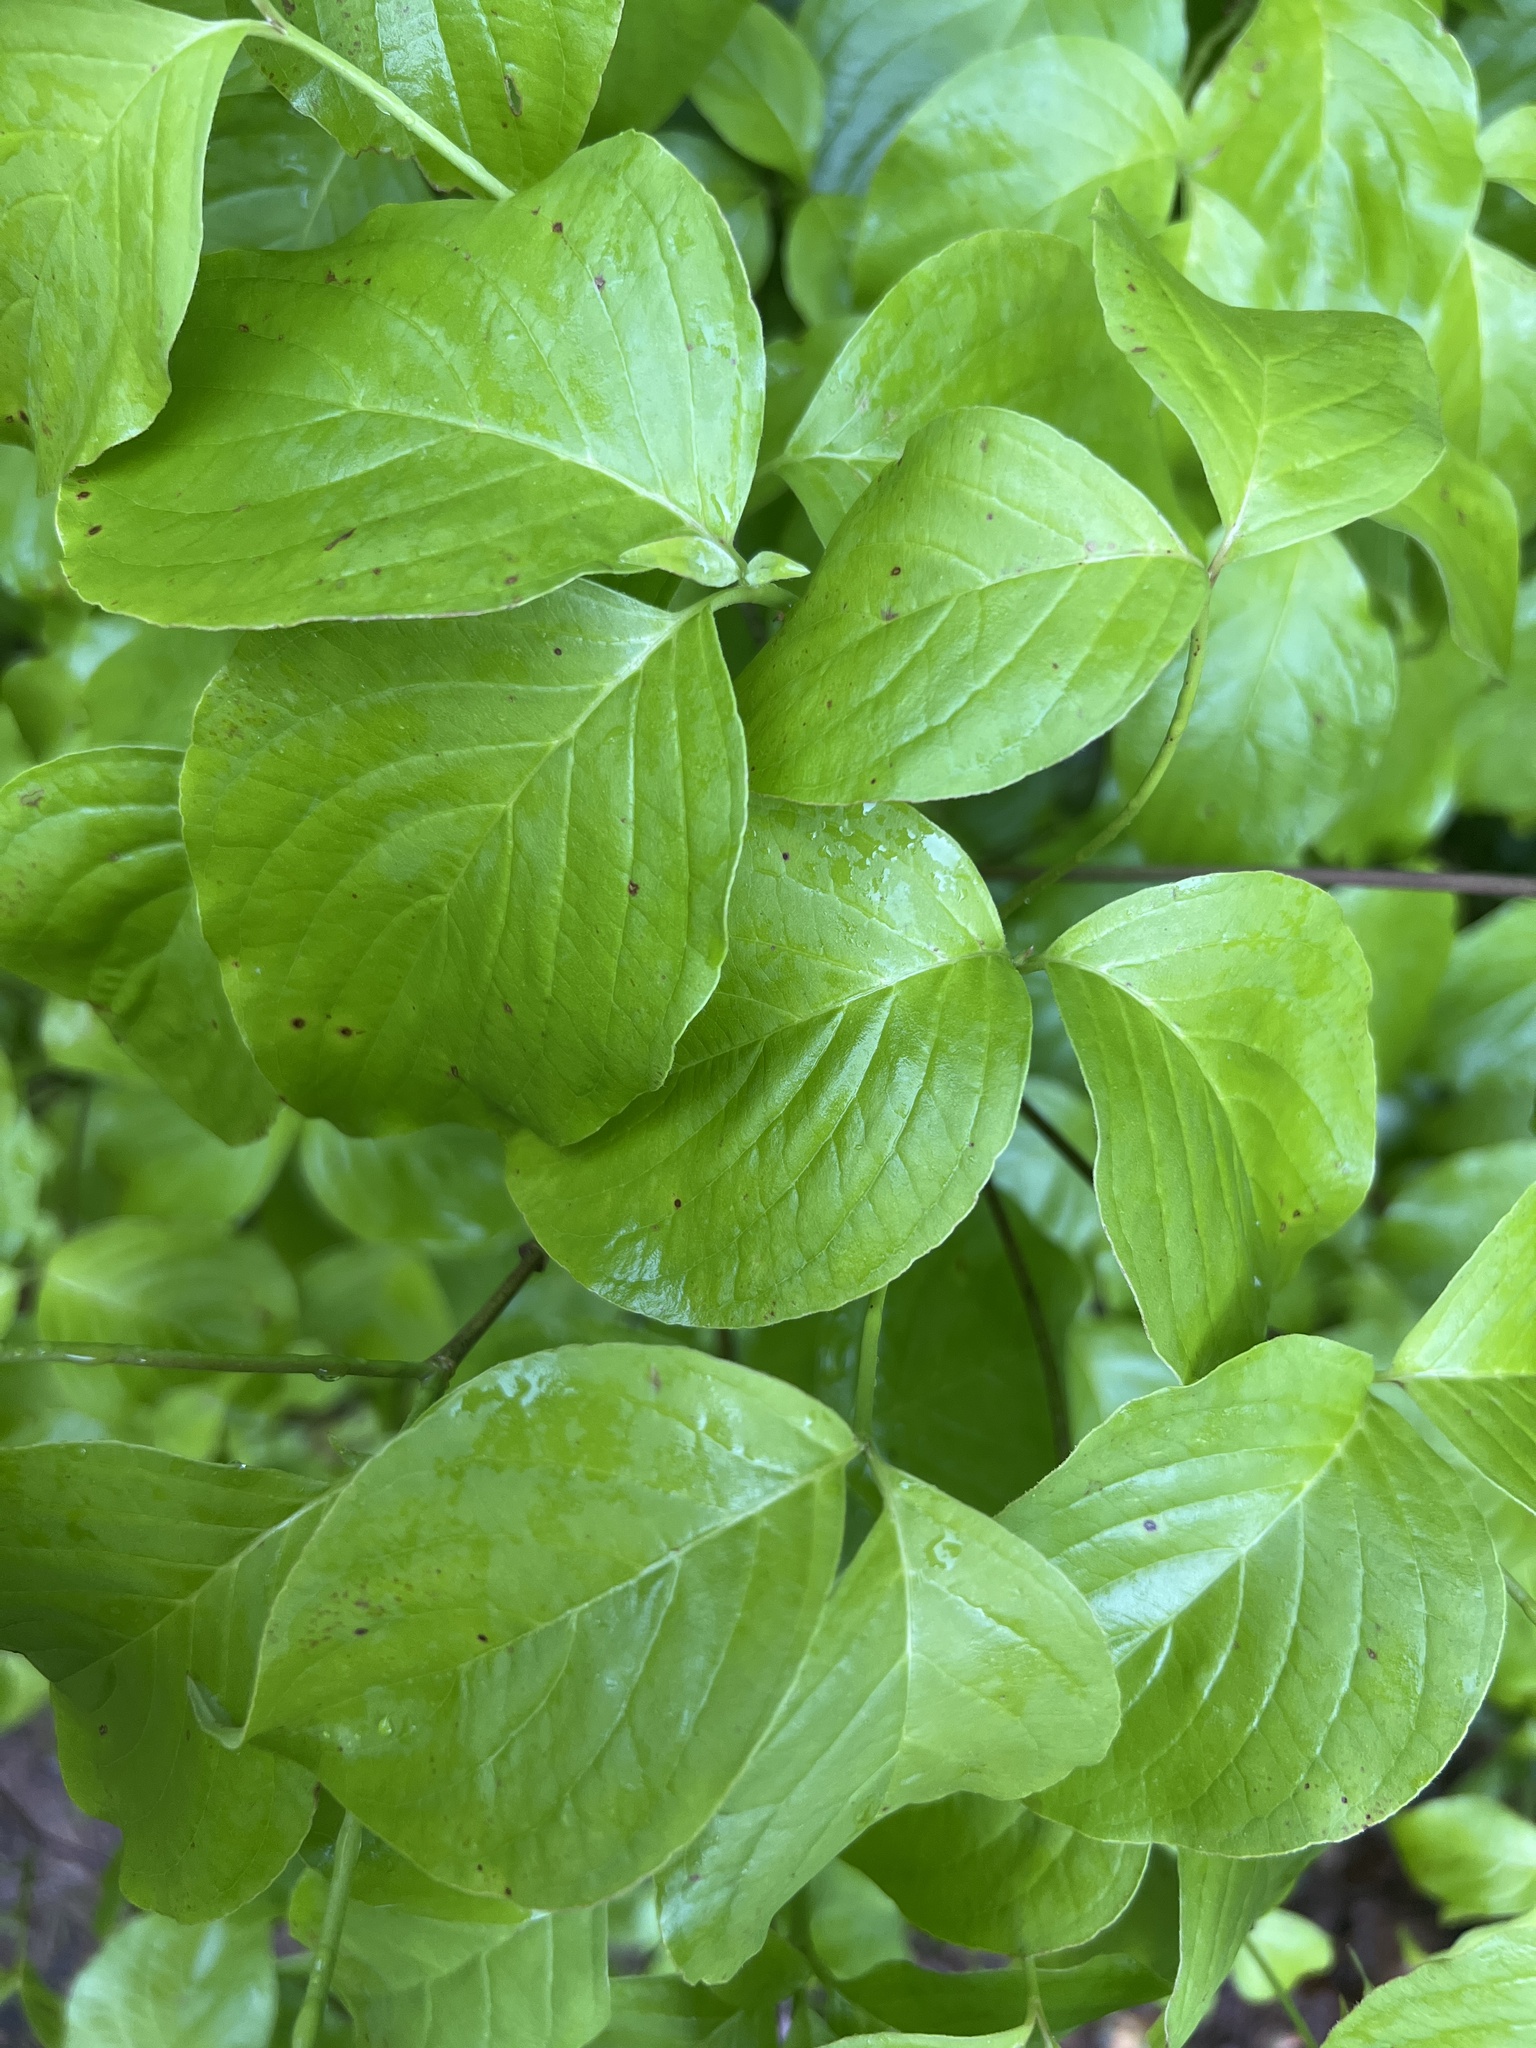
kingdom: Plantae
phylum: Tracheophyta
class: Magnoliopsida
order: Cornales
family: Cornaceae
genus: Cornus
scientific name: Cornus florida
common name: Flowering dogwood
